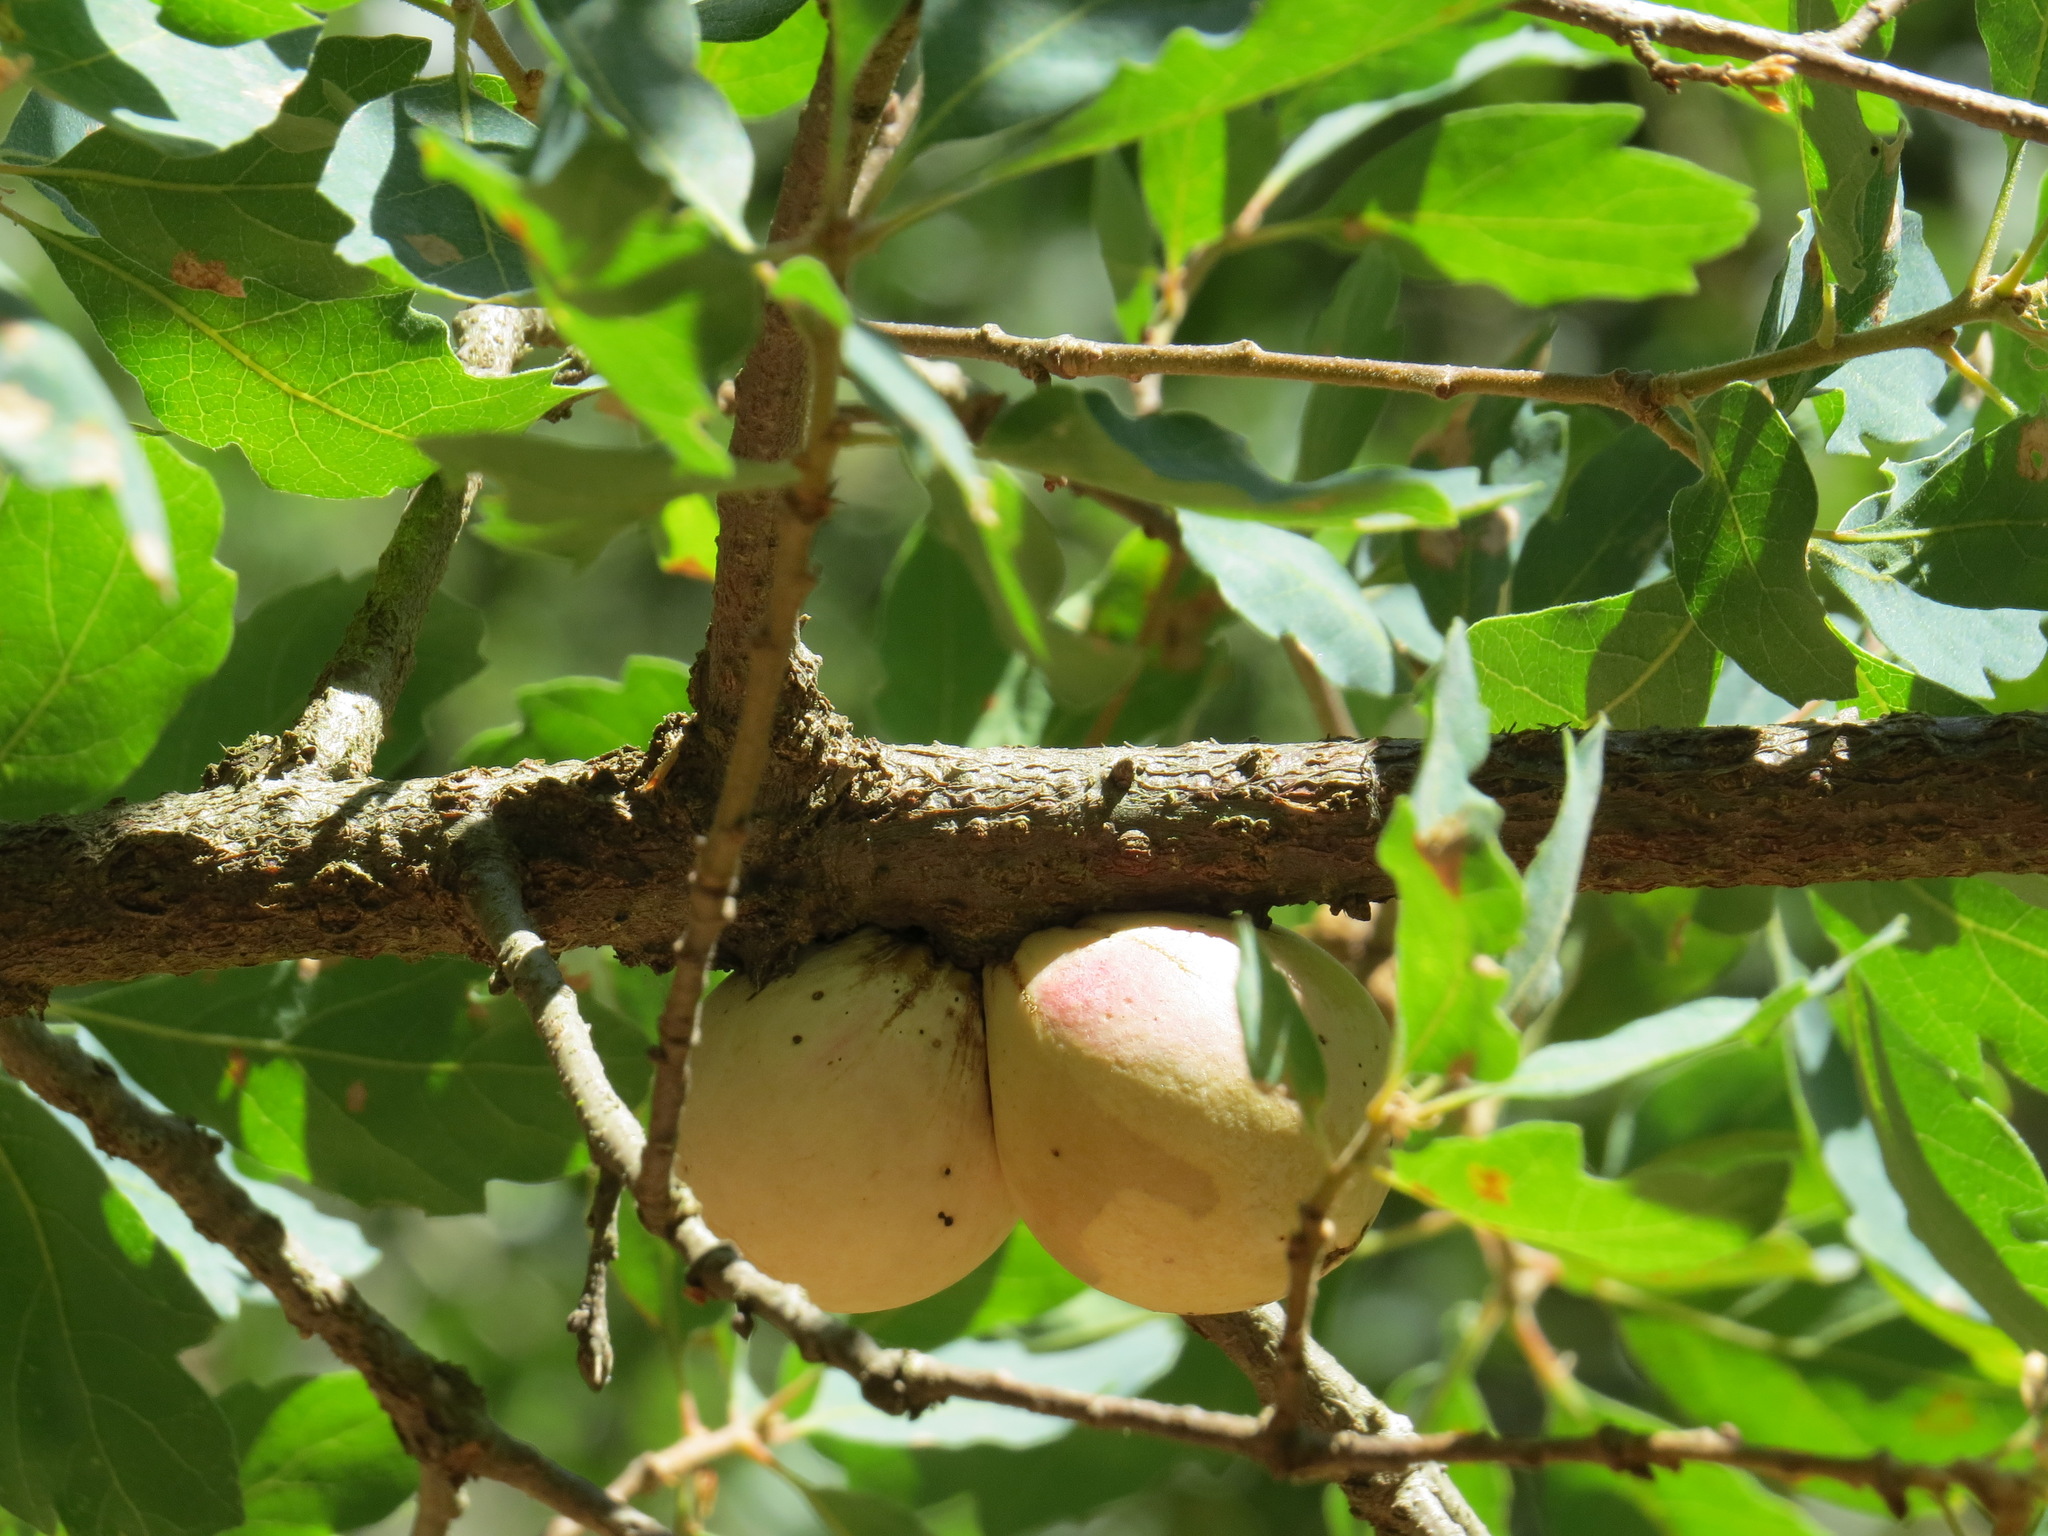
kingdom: Animalia
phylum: Arthropoda
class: Insecta
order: Hymenoptera
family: Cynipidae
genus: Andricus
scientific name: Andricus quercuscalifornicus
